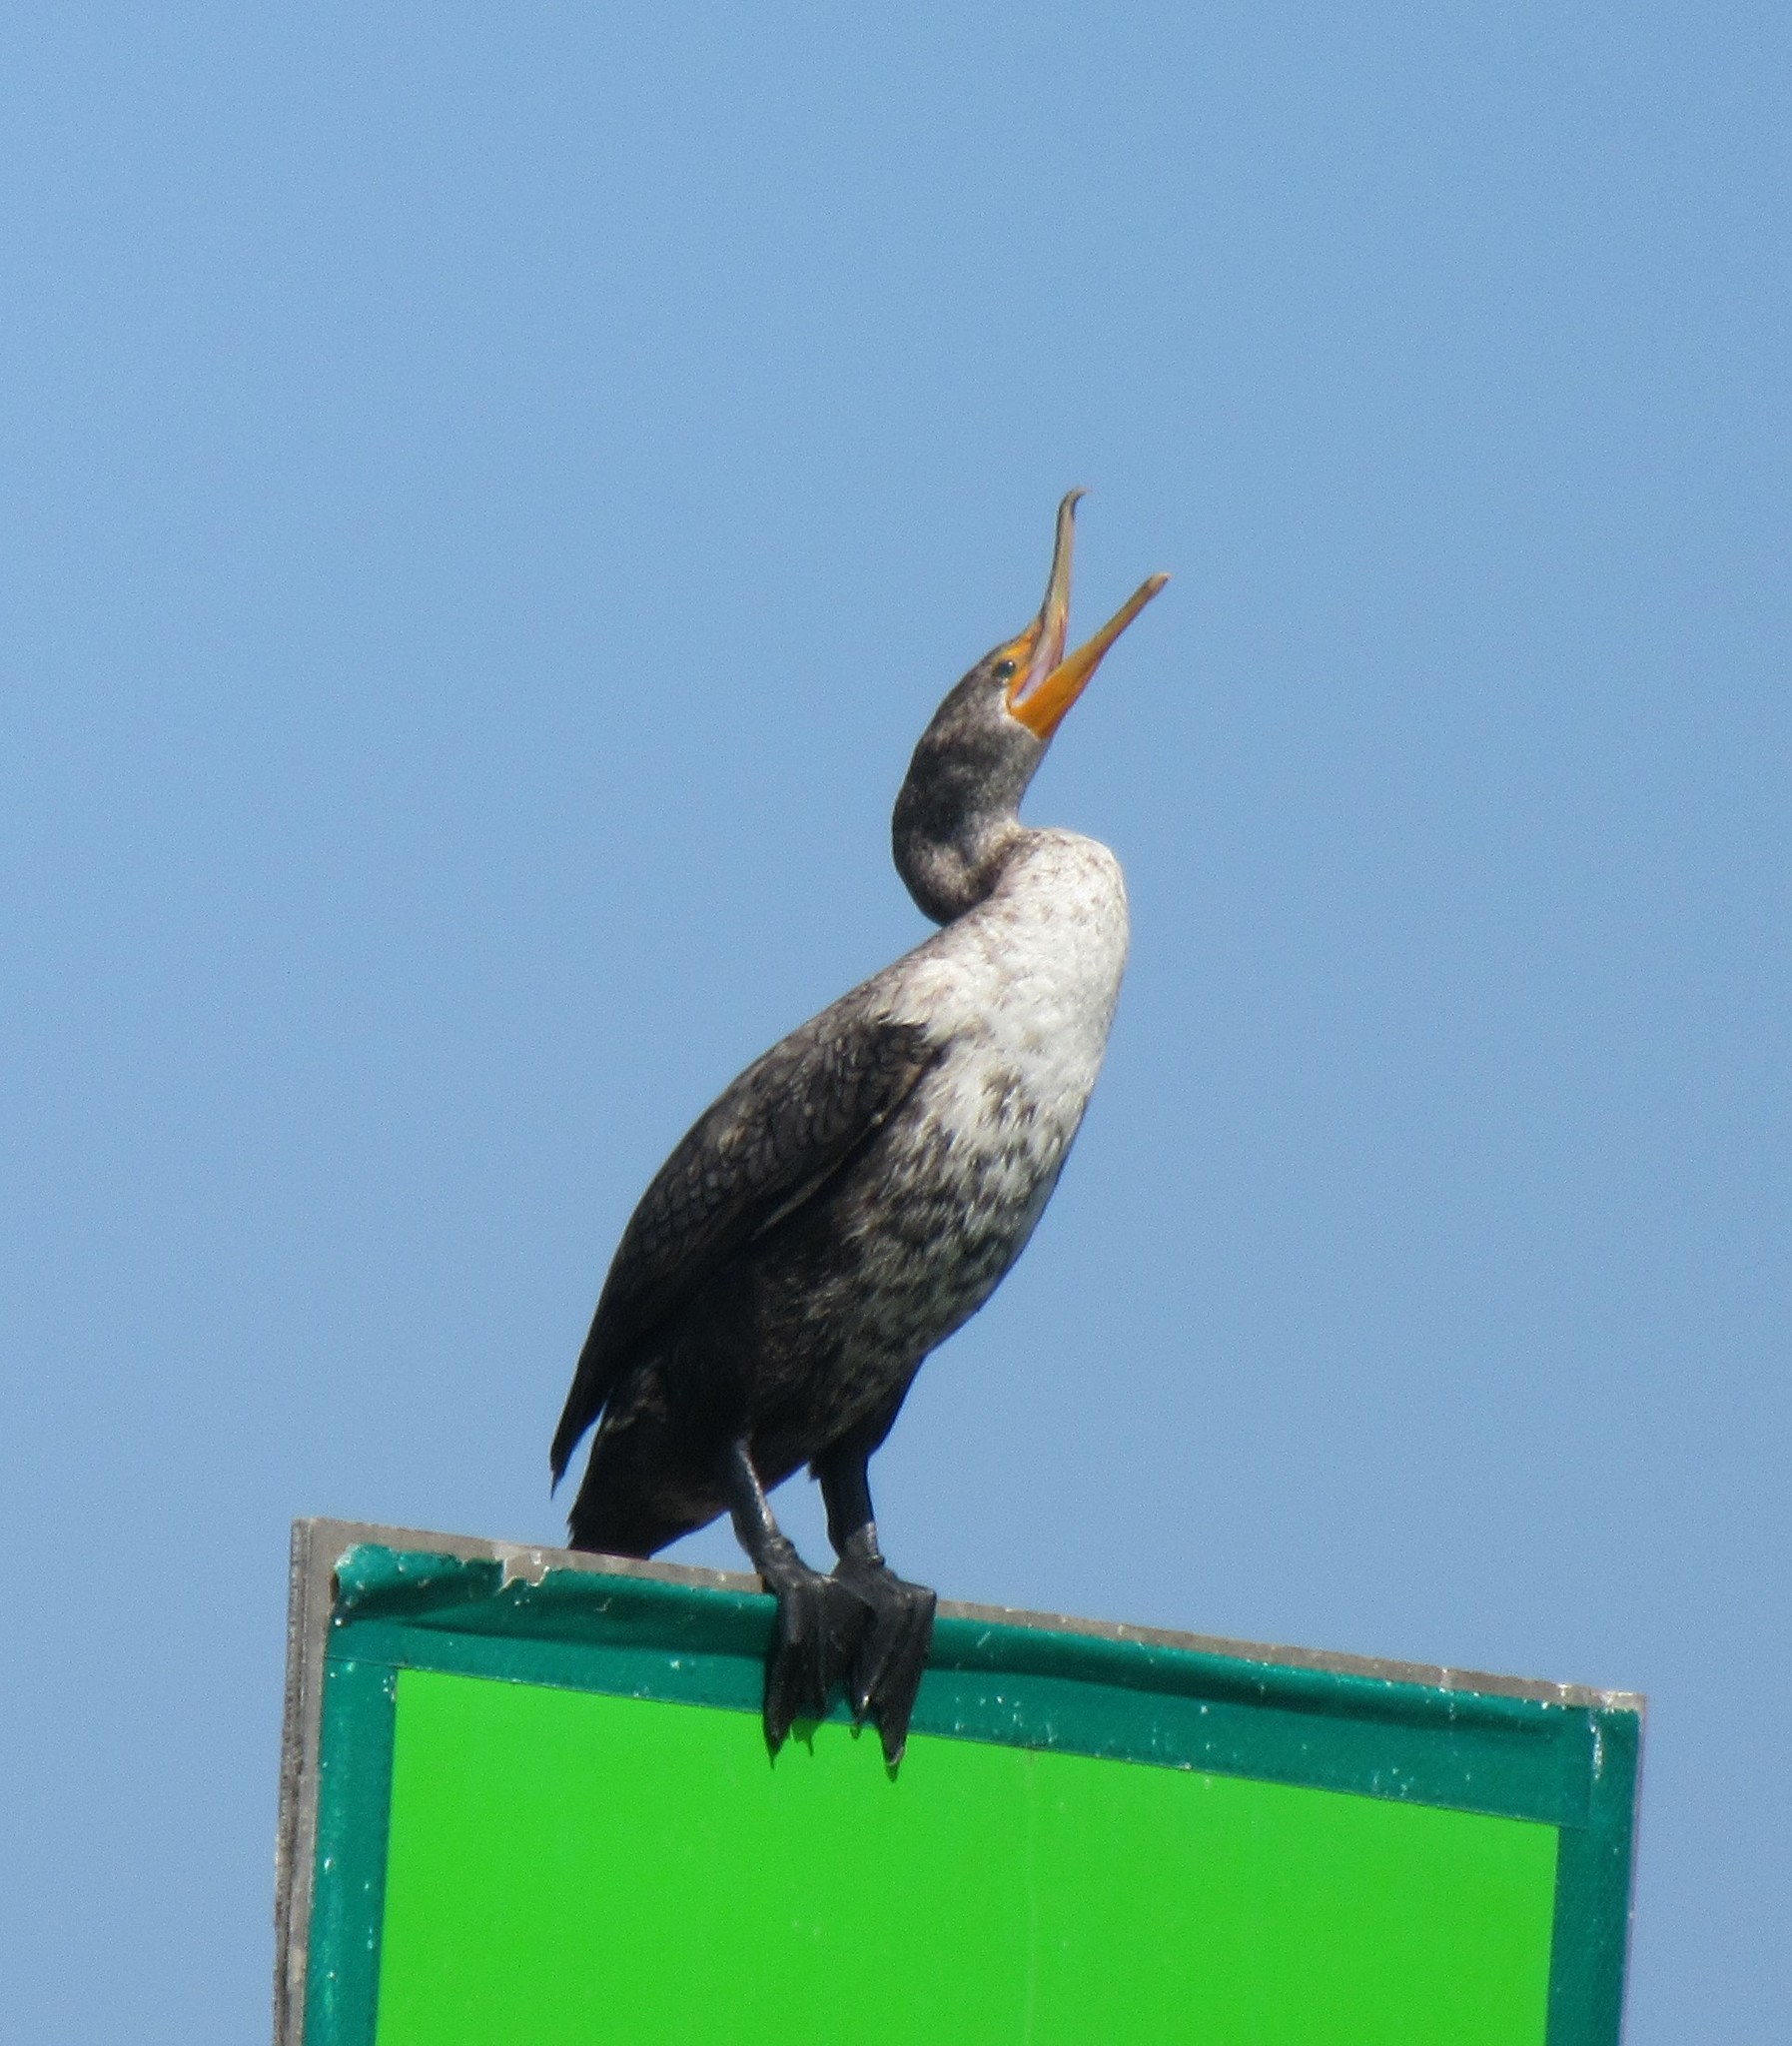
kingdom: Animalia
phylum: Chordata
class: Aves
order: Suliformes
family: Phalacrocoracidae
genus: Phalacrocorax
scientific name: Phalacrocorax auritus
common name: Double-crested cormorant
